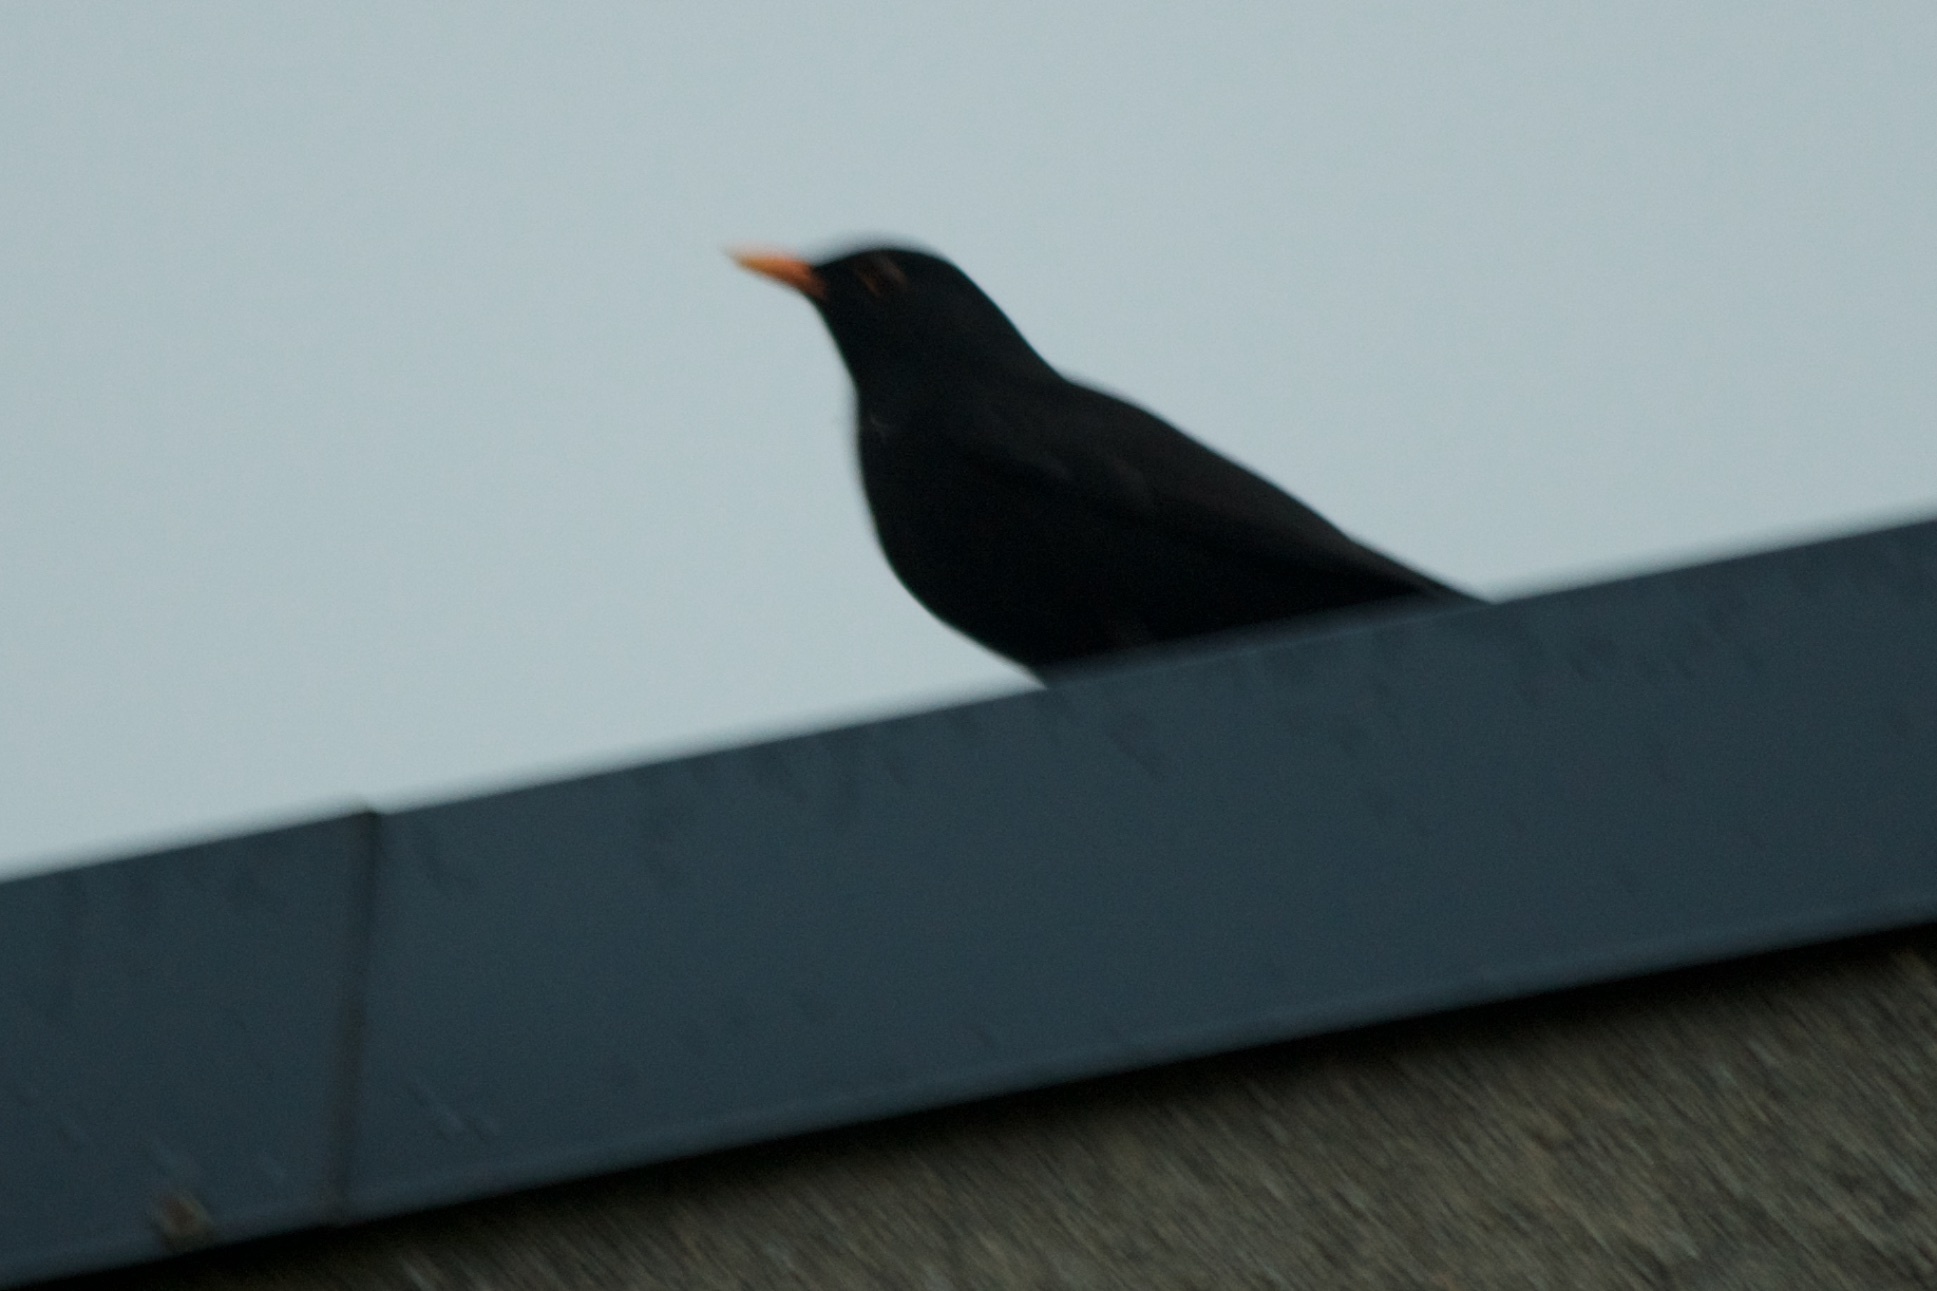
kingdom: Animalia
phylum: Chordata
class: Aves
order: Passeriformes
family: Turdidae
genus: Turdus
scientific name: Turdus merula
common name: Common blackbird
